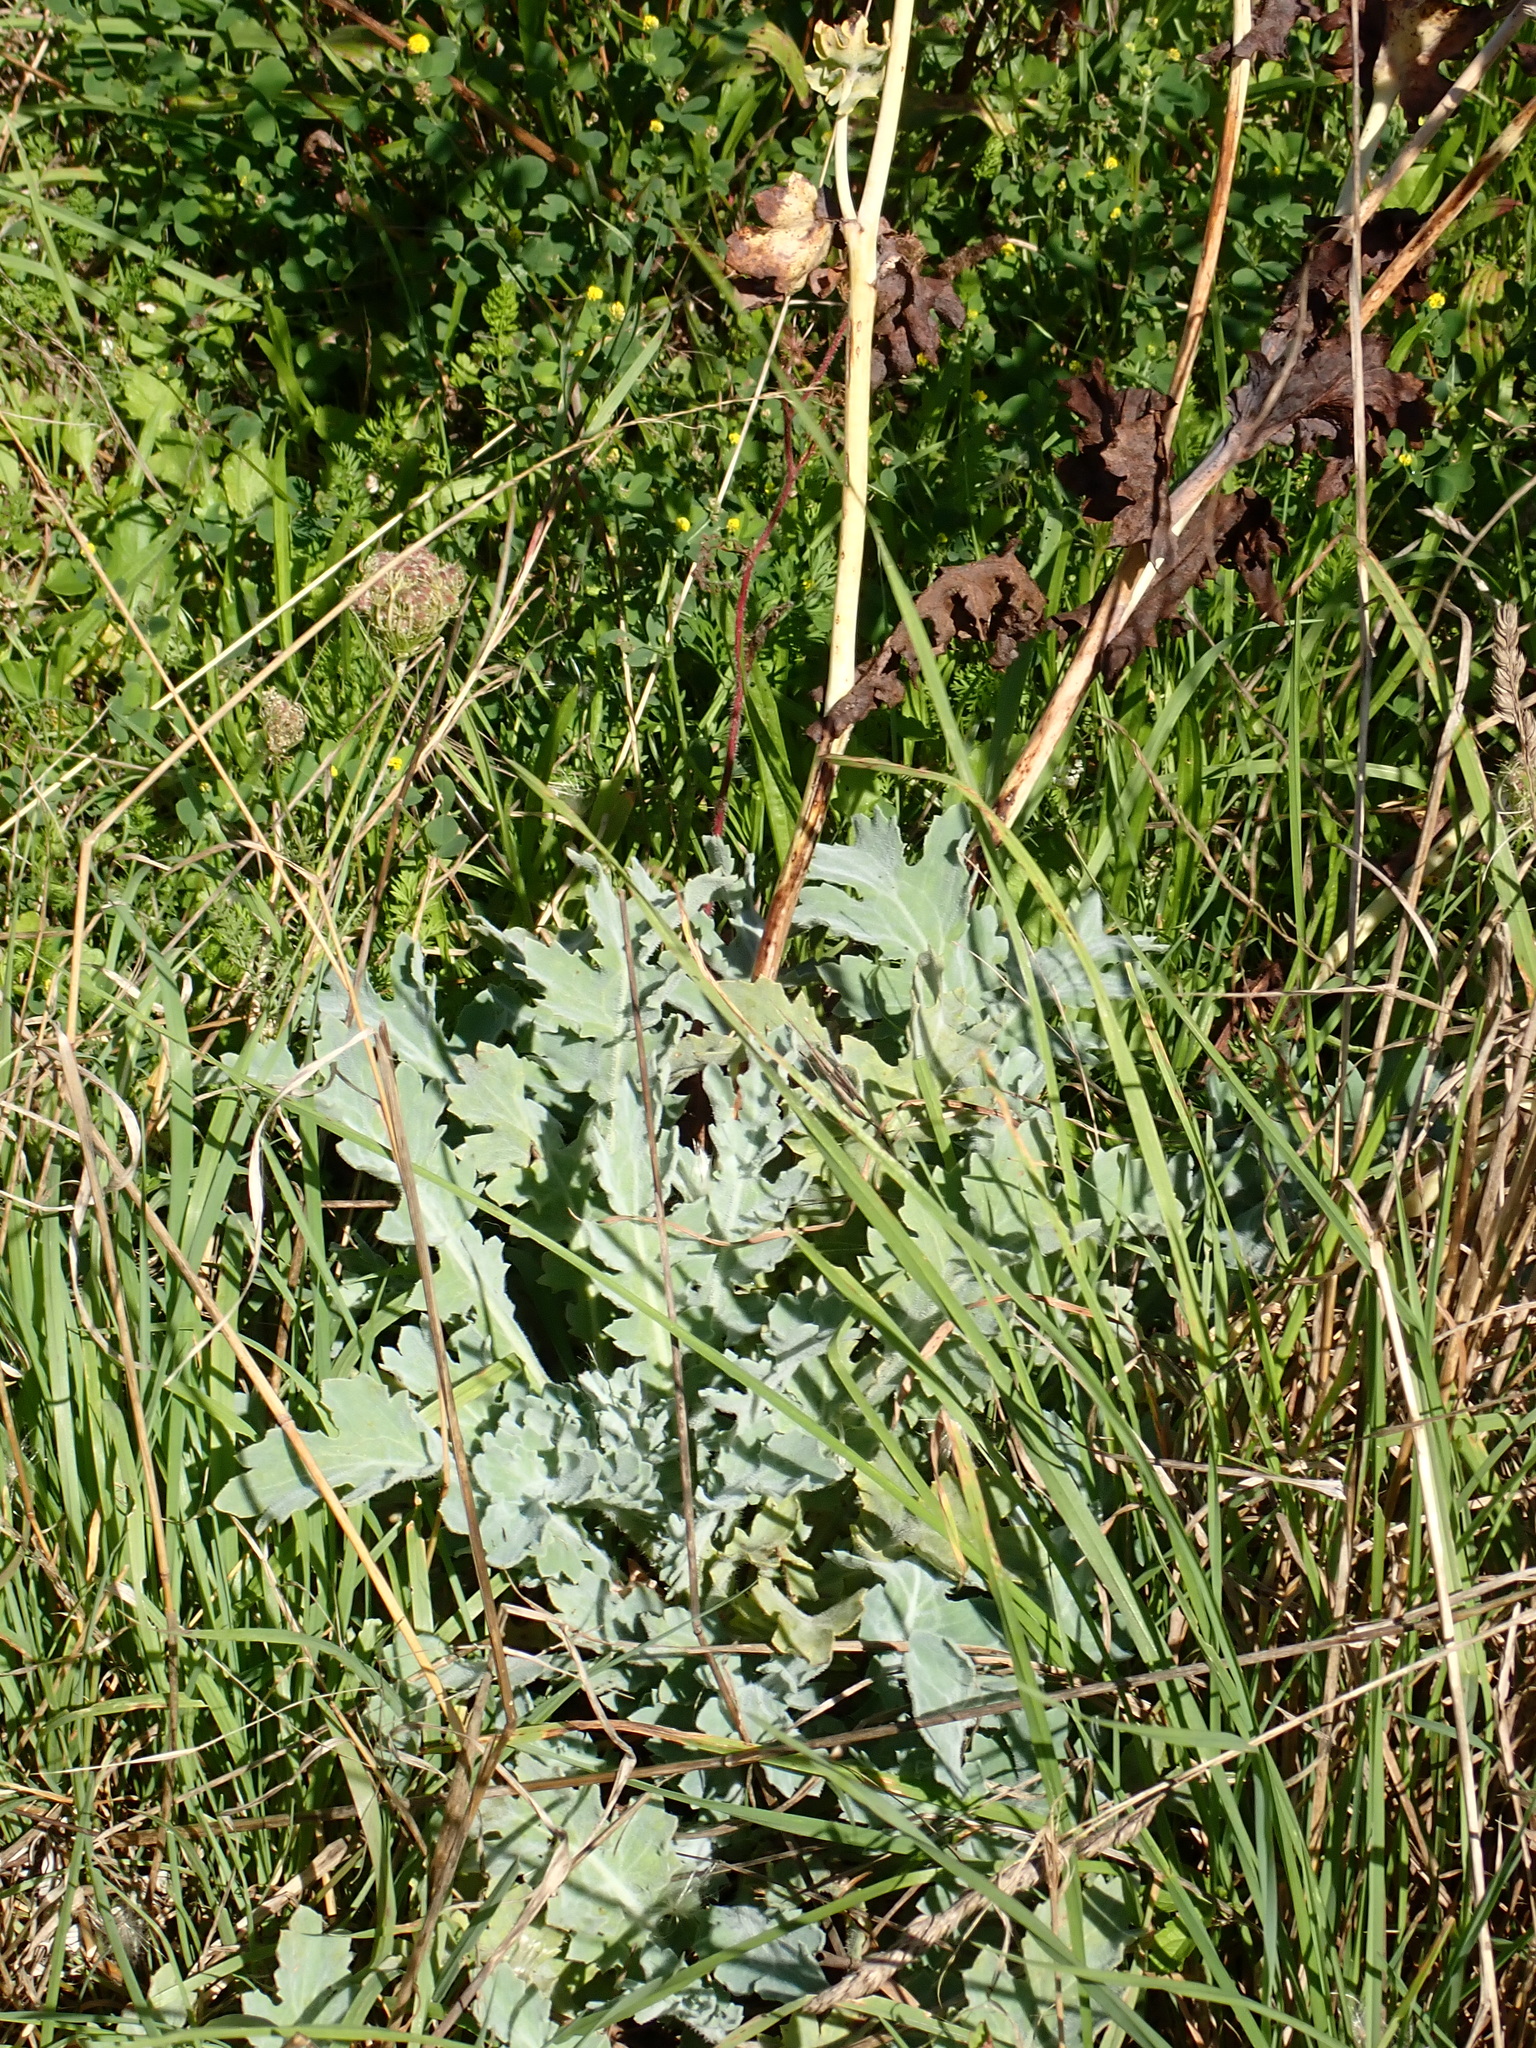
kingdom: Plantae
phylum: Tracheophyta
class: Magnoliopsida
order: Ranunculales
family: Papaveraceae
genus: Glaucium
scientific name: Glaucium flavum
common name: Yellow horned-poppy
